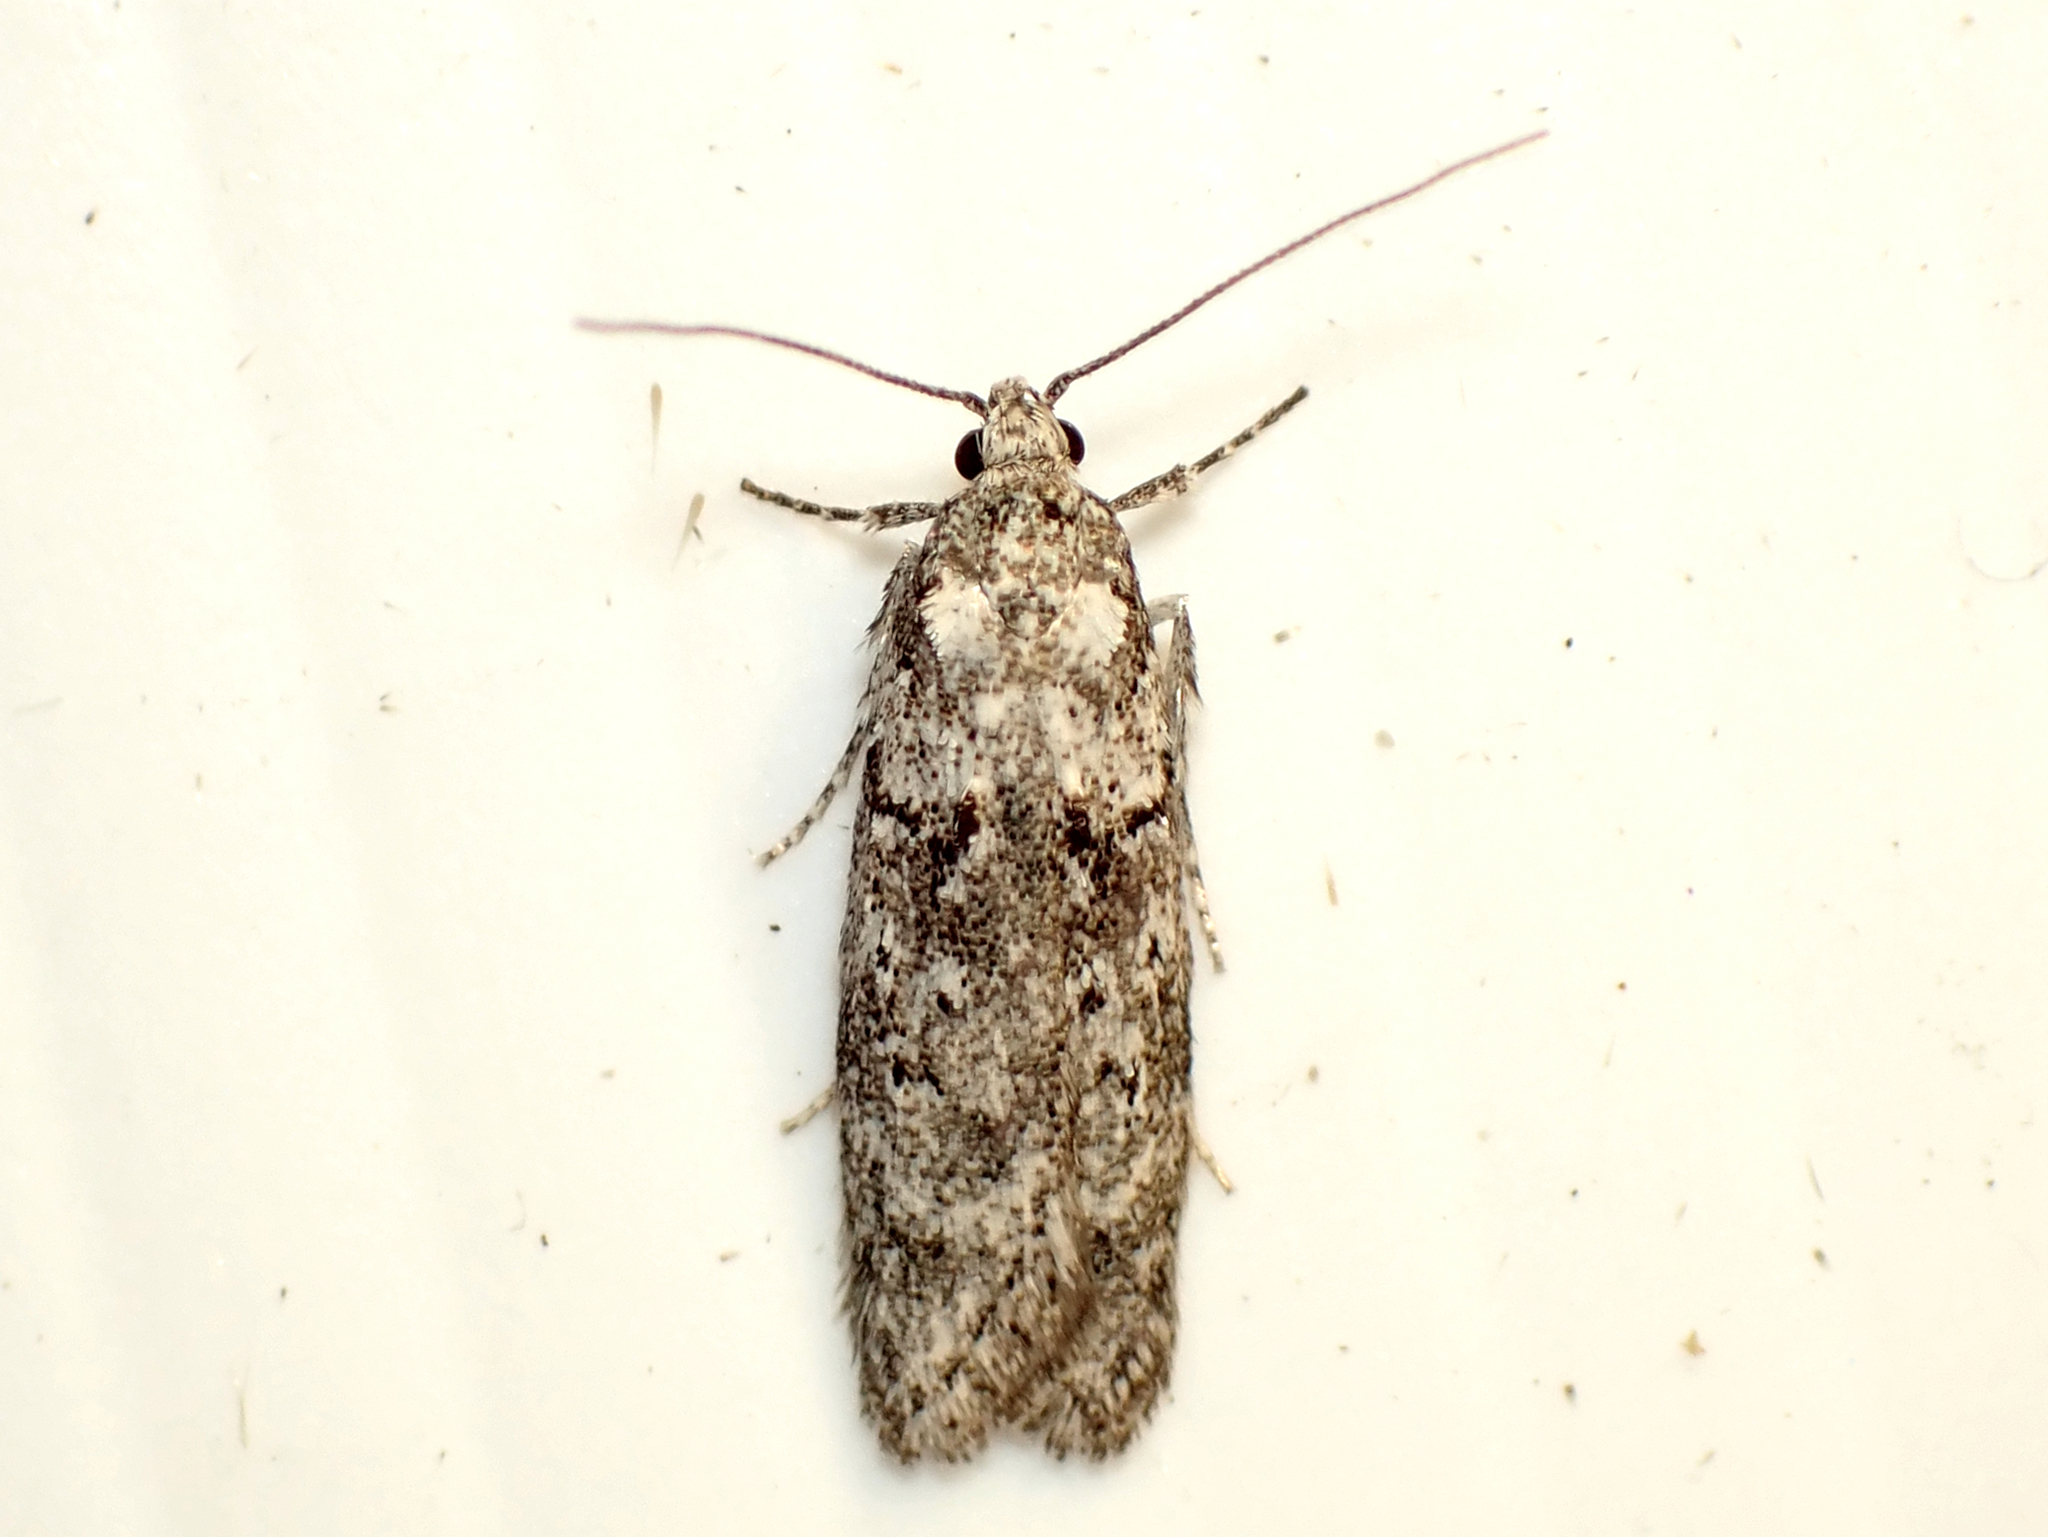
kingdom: Animalia
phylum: Arthropoda
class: Insecta
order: Lepidoptera
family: Oecophoridae
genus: Izatha
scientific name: Izatha convulsella
